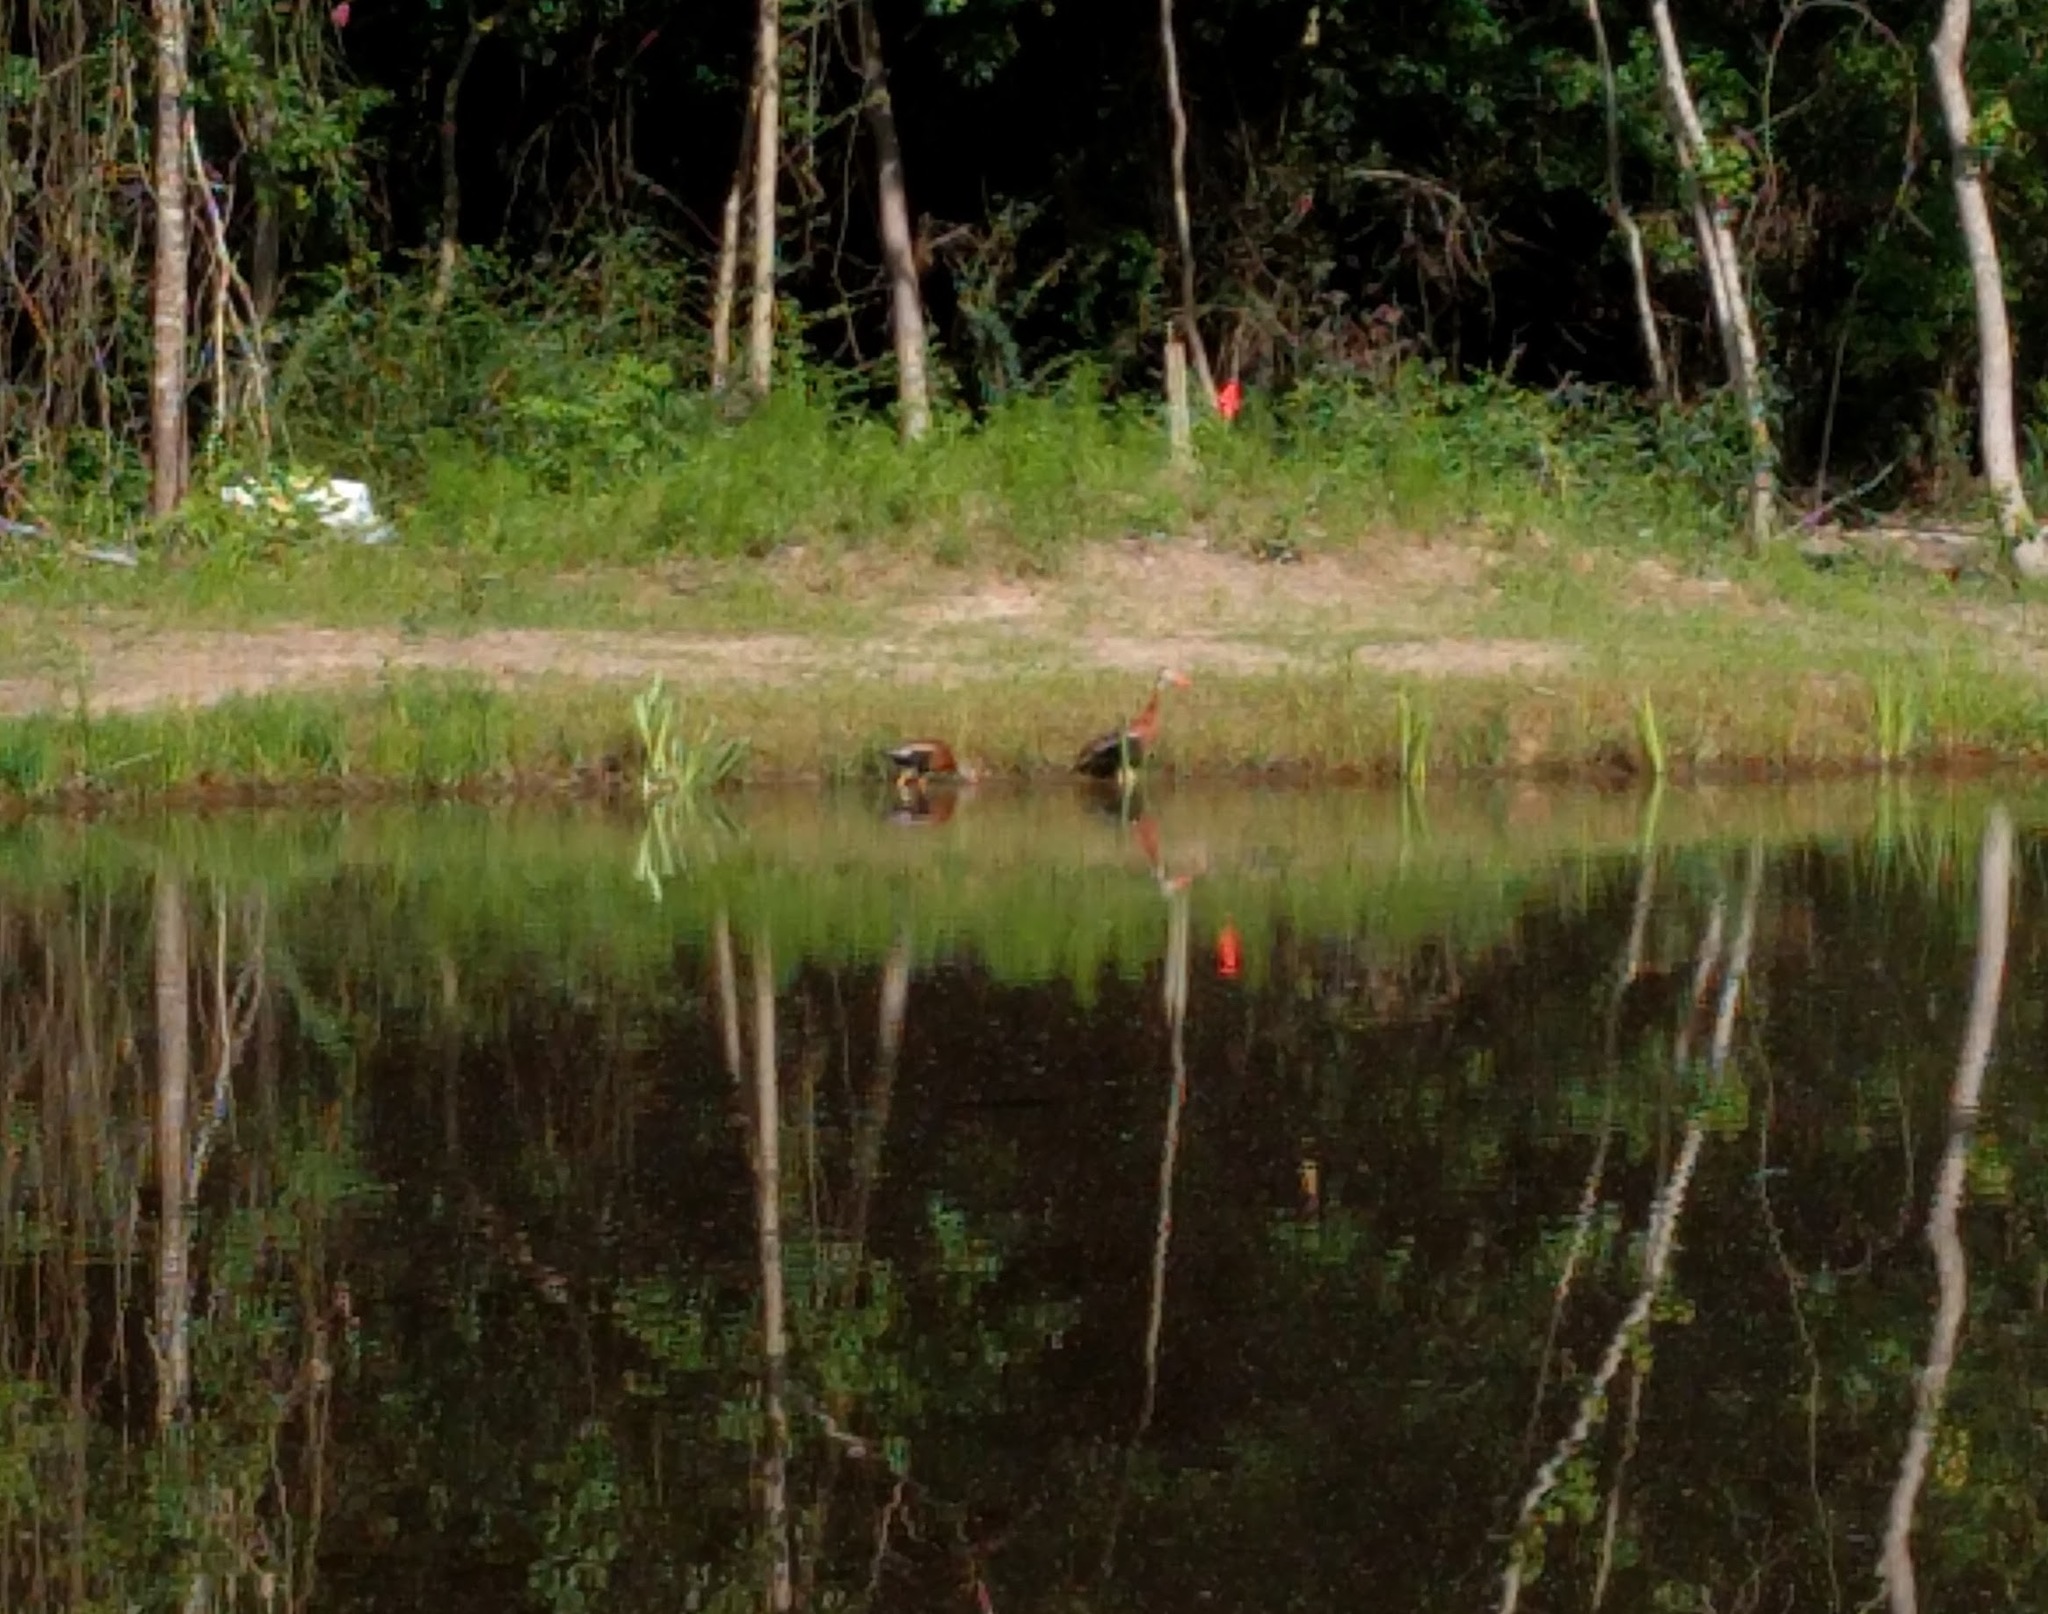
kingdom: Animalia
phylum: Chordata
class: Aves
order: Anseriformes
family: Anatidae
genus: Dendrocygna
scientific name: Dendrocygna autumnalis
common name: Black-bellied whistling duck
